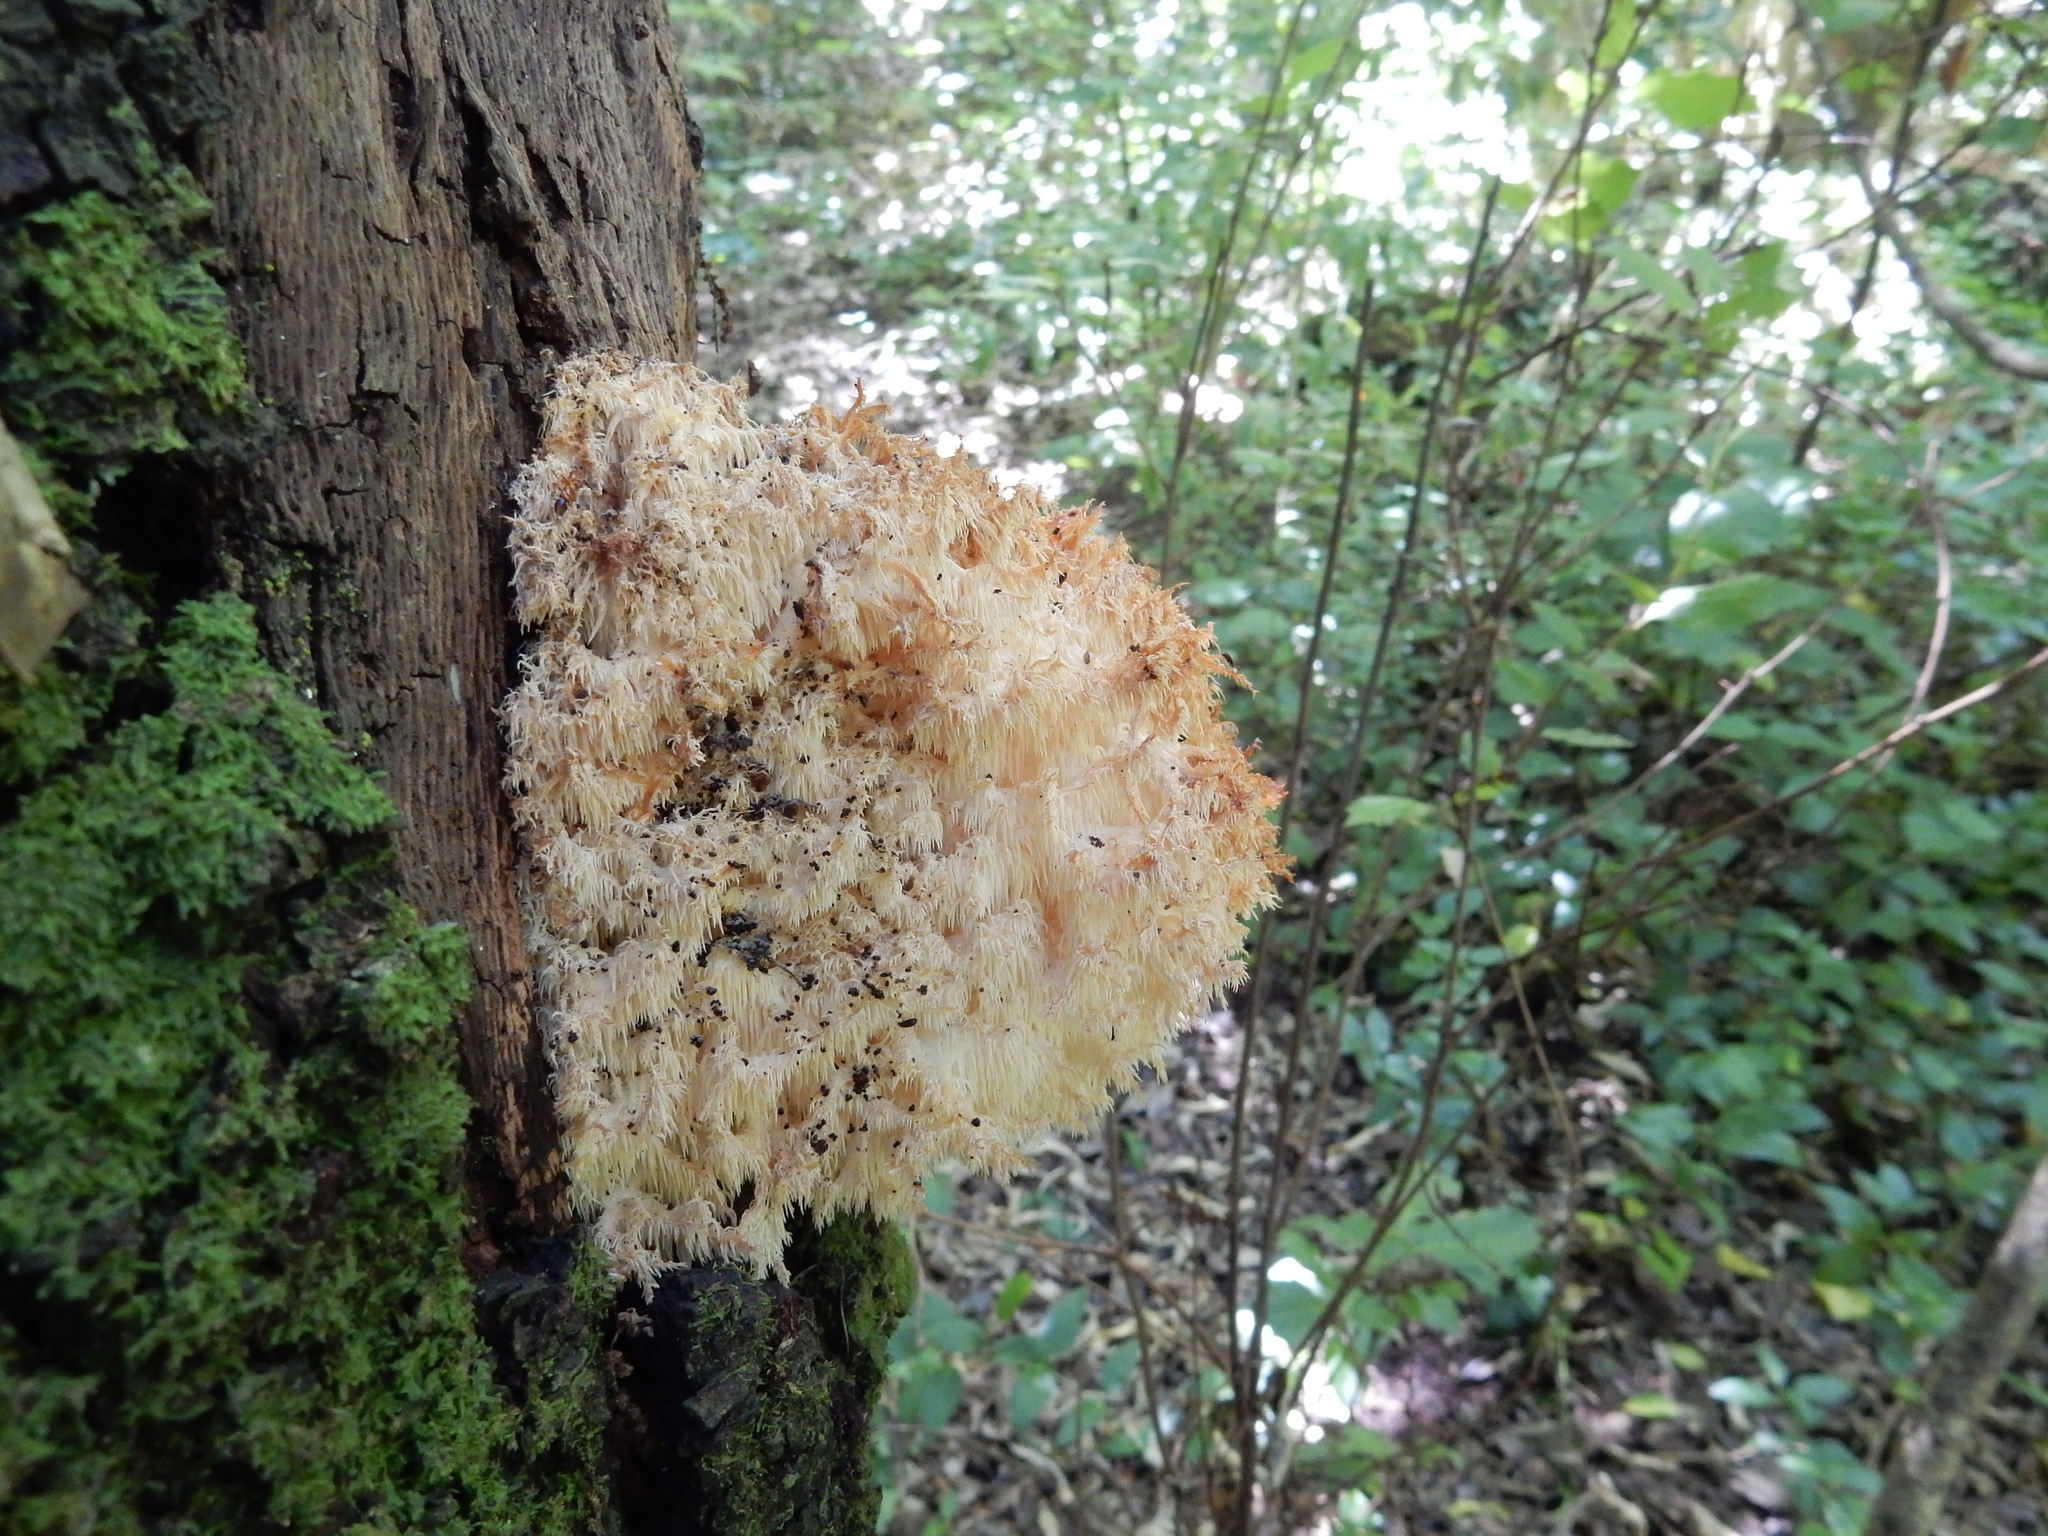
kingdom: Fungi
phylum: Basidiomycota
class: Agaricomycetes
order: Russulales
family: Hericiaceae
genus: Hericium
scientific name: Hericium novae-zealandiae
